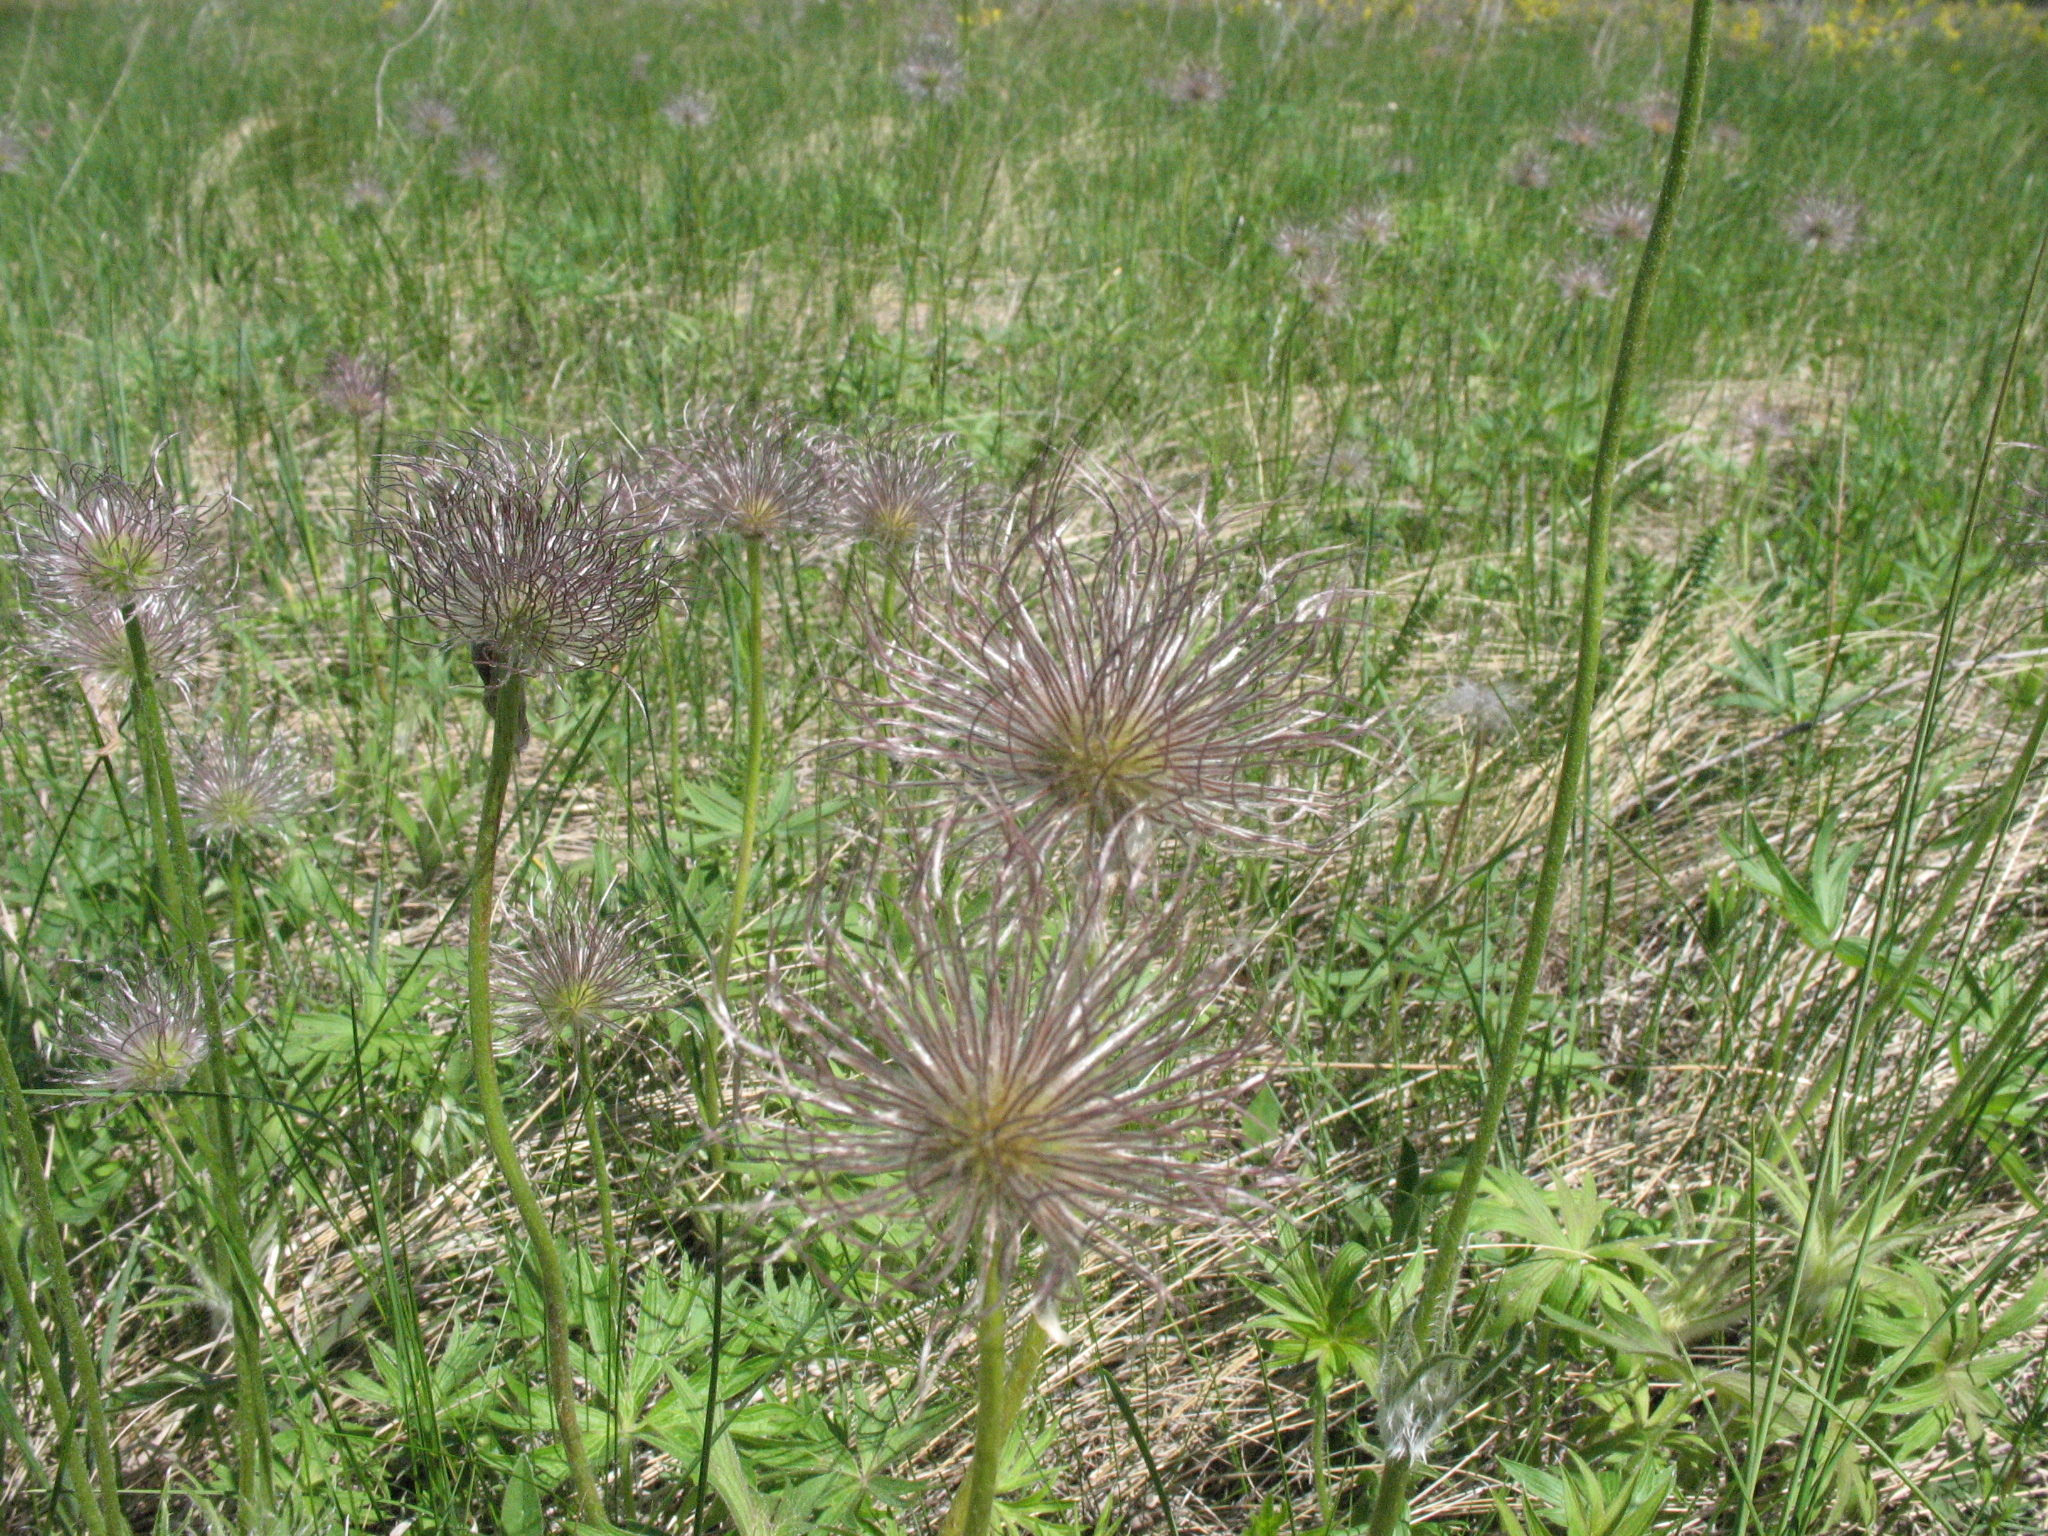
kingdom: Plantae
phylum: Tracheophyta
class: Magnoliopsida
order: Ranunculales
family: Ranunculaceae
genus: Pulsatilla
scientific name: Pulsatilla patens
